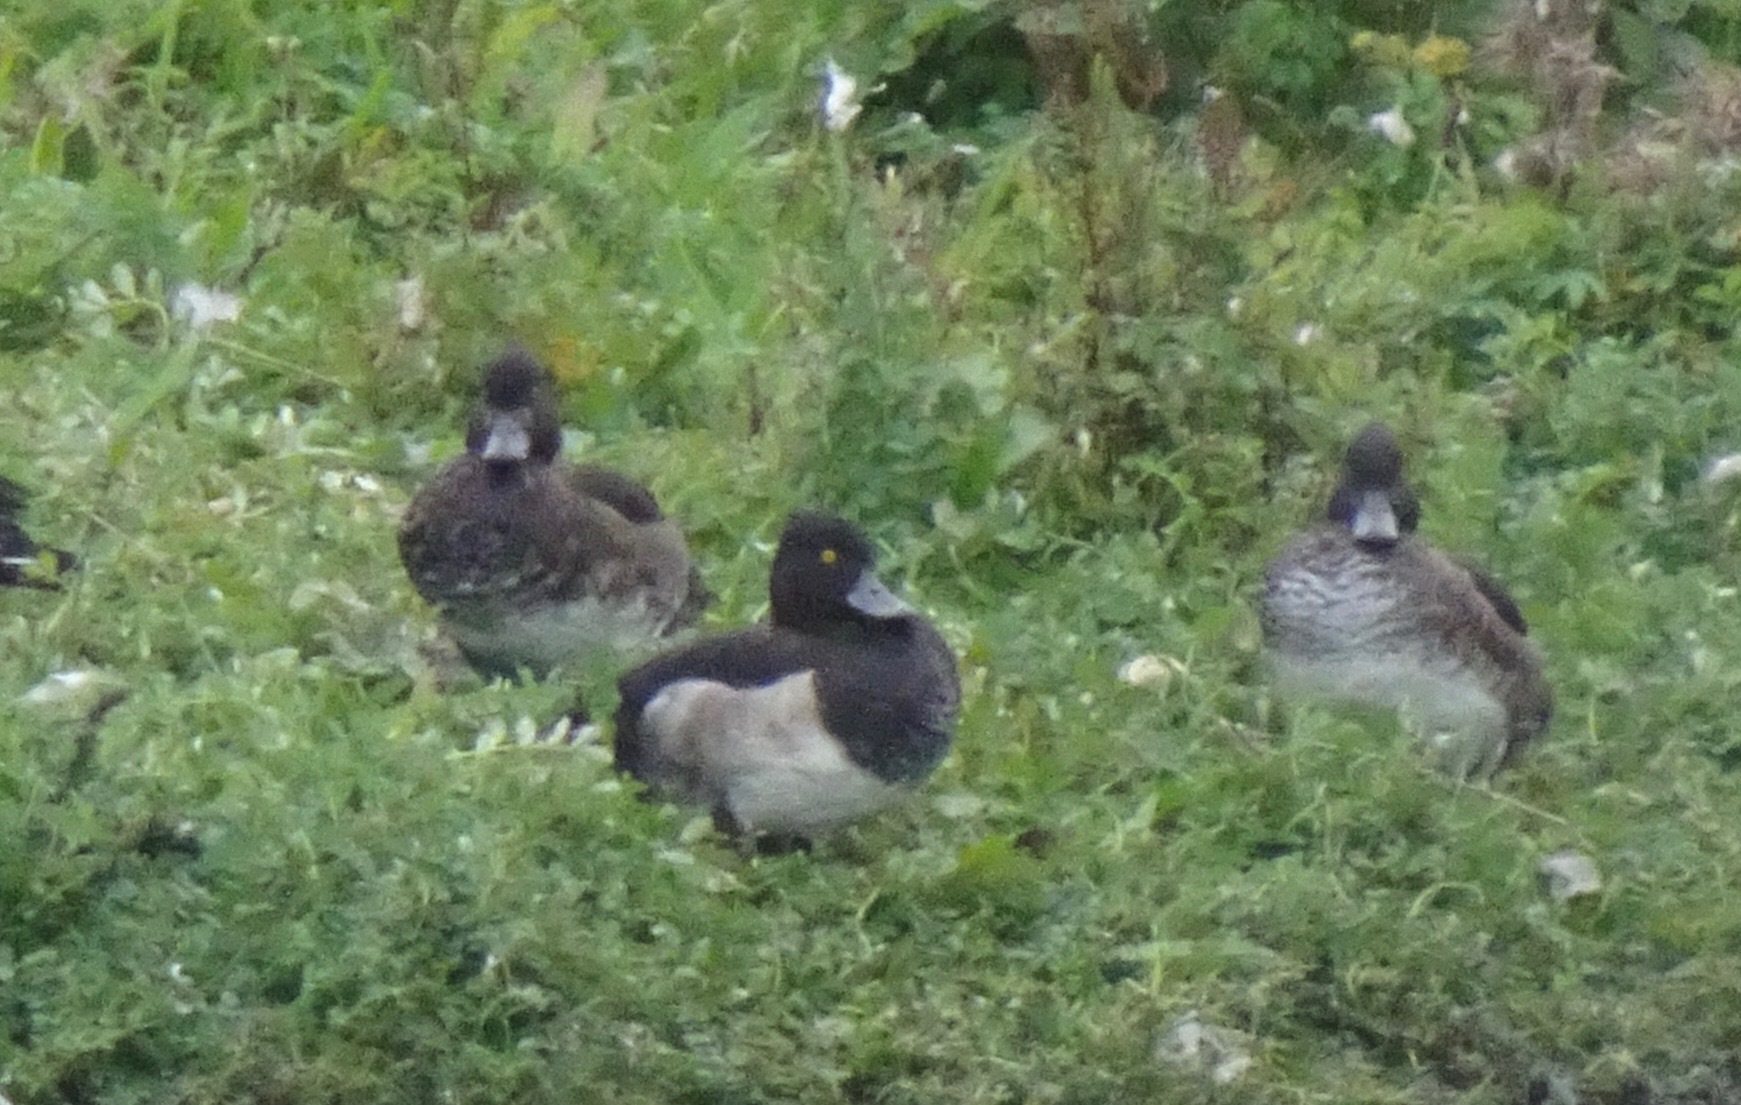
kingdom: Animalia
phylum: Chordata
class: Aves
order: Anseriformes
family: Anatidae
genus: Aythya
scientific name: Aythya fuligula
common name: Tufted duck
